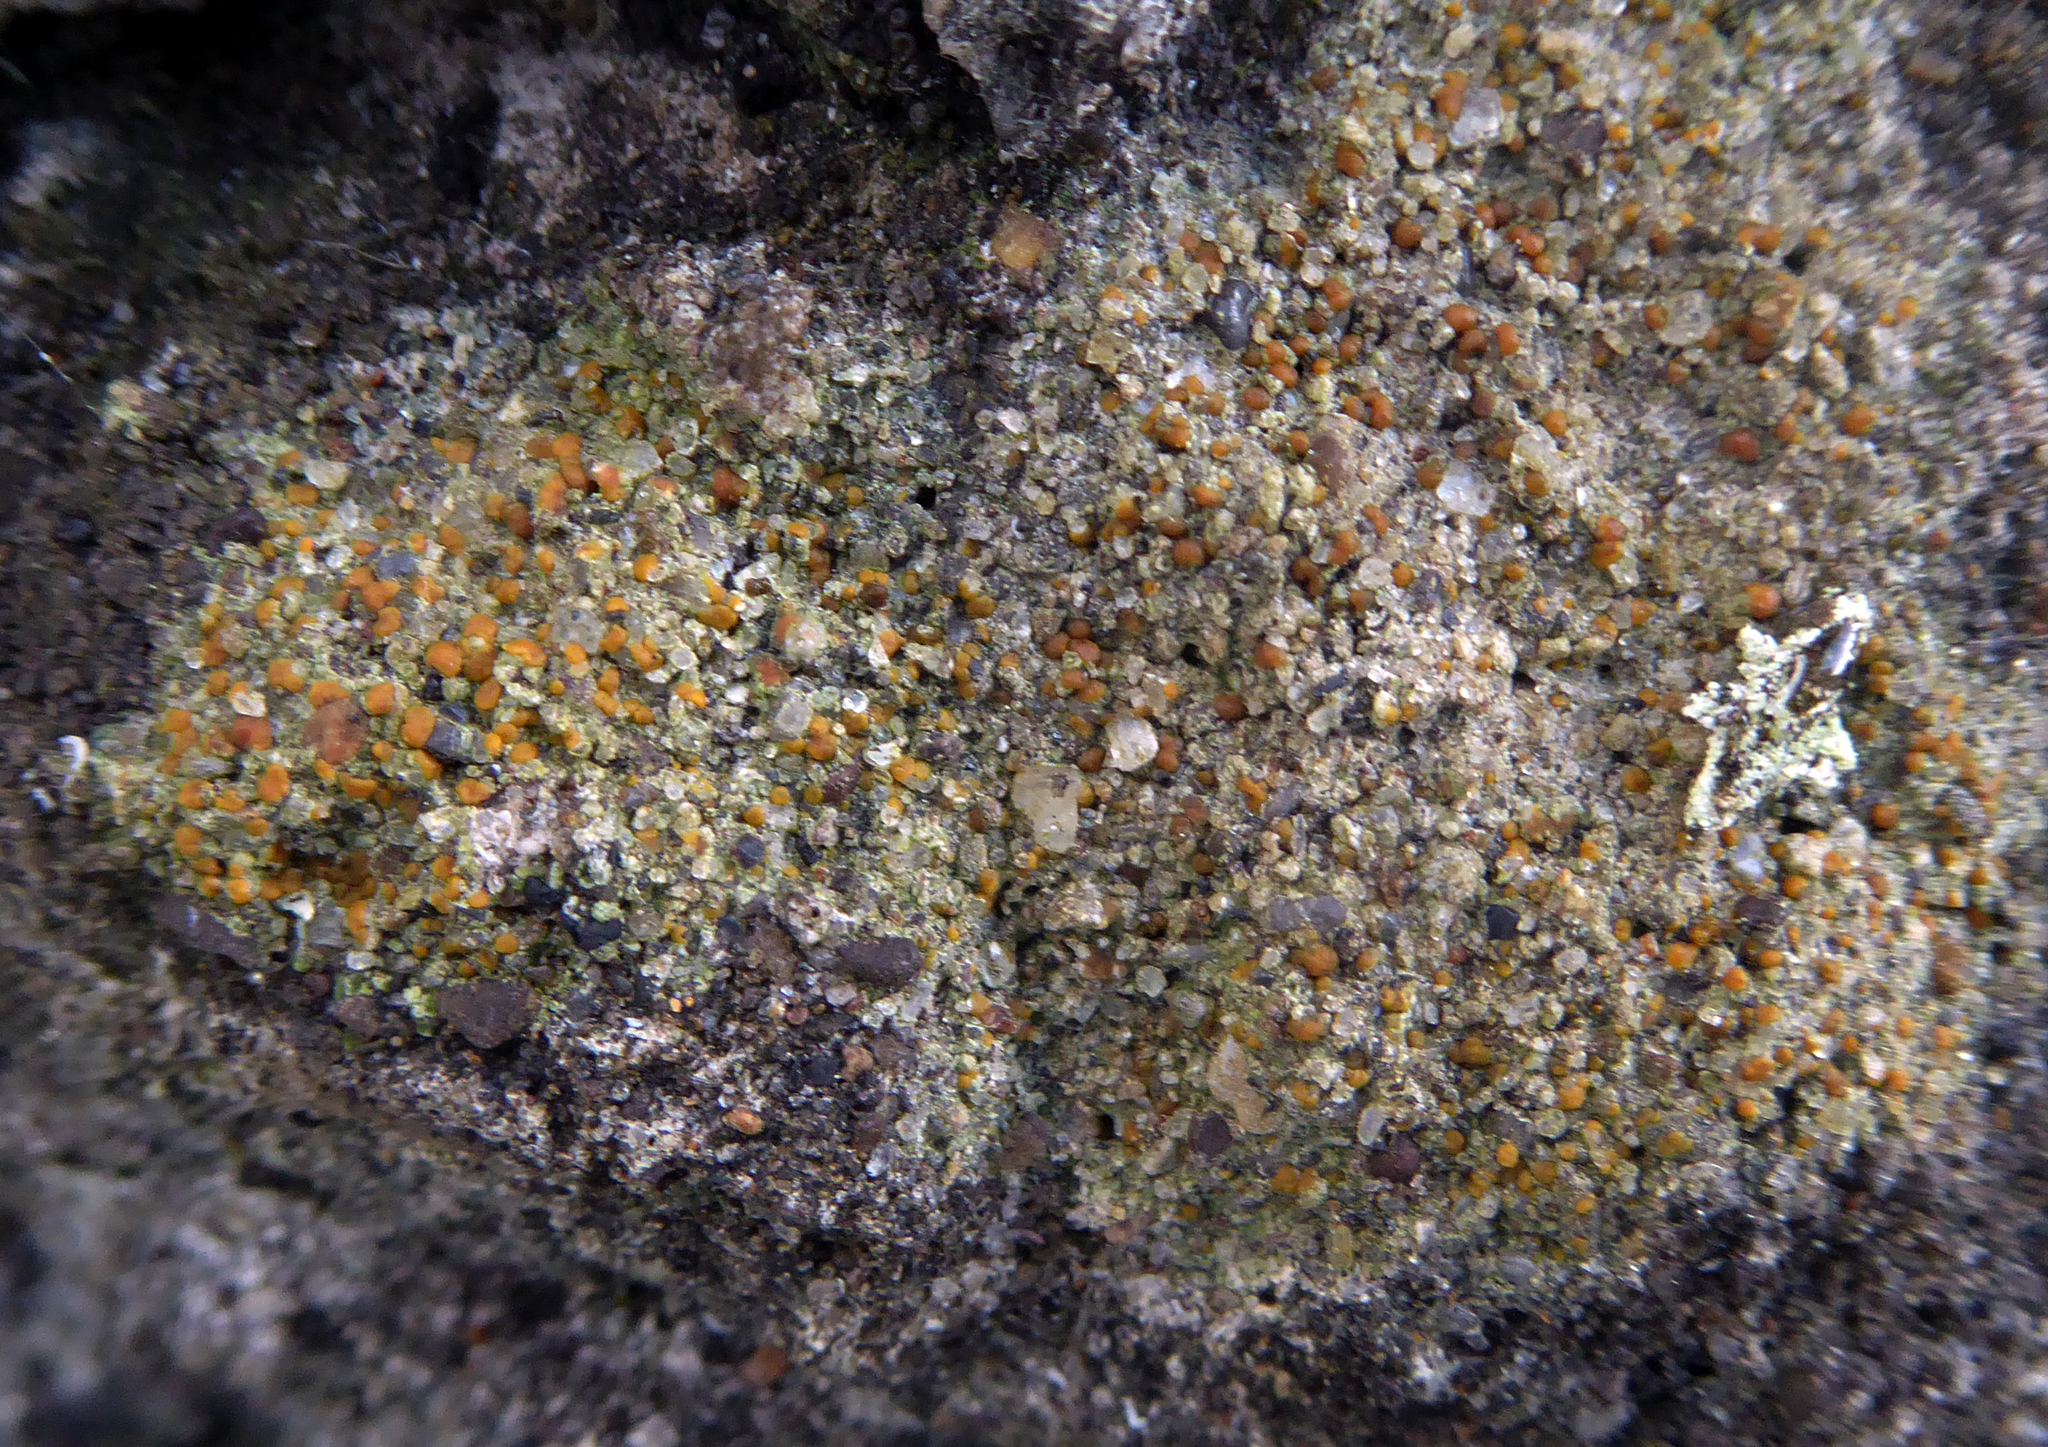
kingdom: Fungi
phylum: Ascomycota
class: Lecanoromycetes
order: Lecanorales
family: Psoraceae
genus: Protoblastenia
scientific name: Protoblastenia rupestris
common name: Chewing gum lichen
